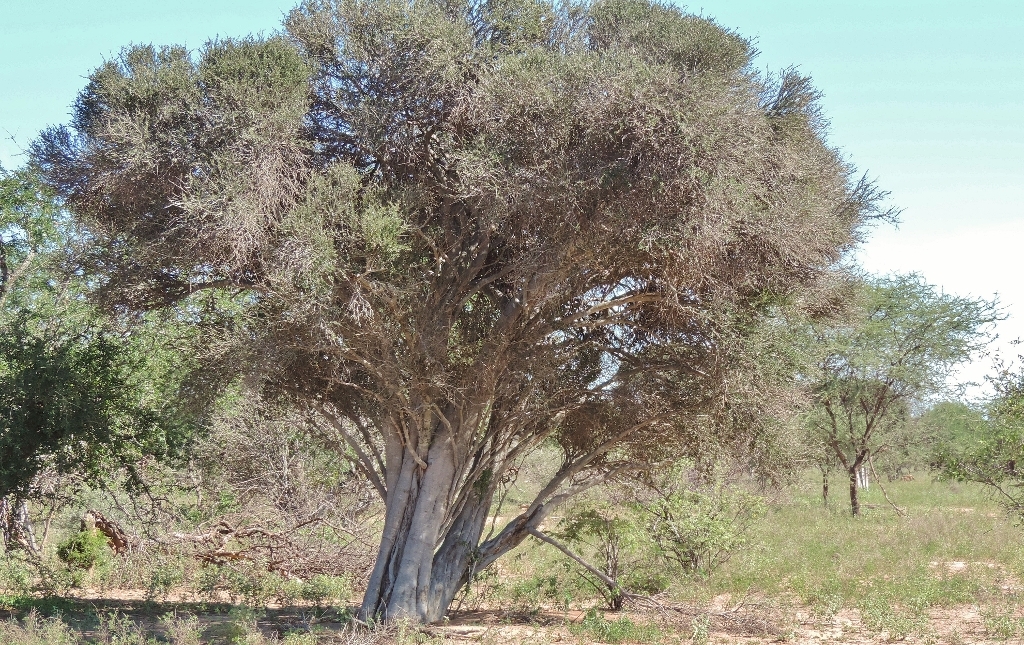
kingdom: Plantae
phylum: Tracheophyta
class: Magnoliopsida
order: Brassicales
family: Capparaceae
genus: Boscia
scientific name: Boscia albitrunca
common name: Caper bush
